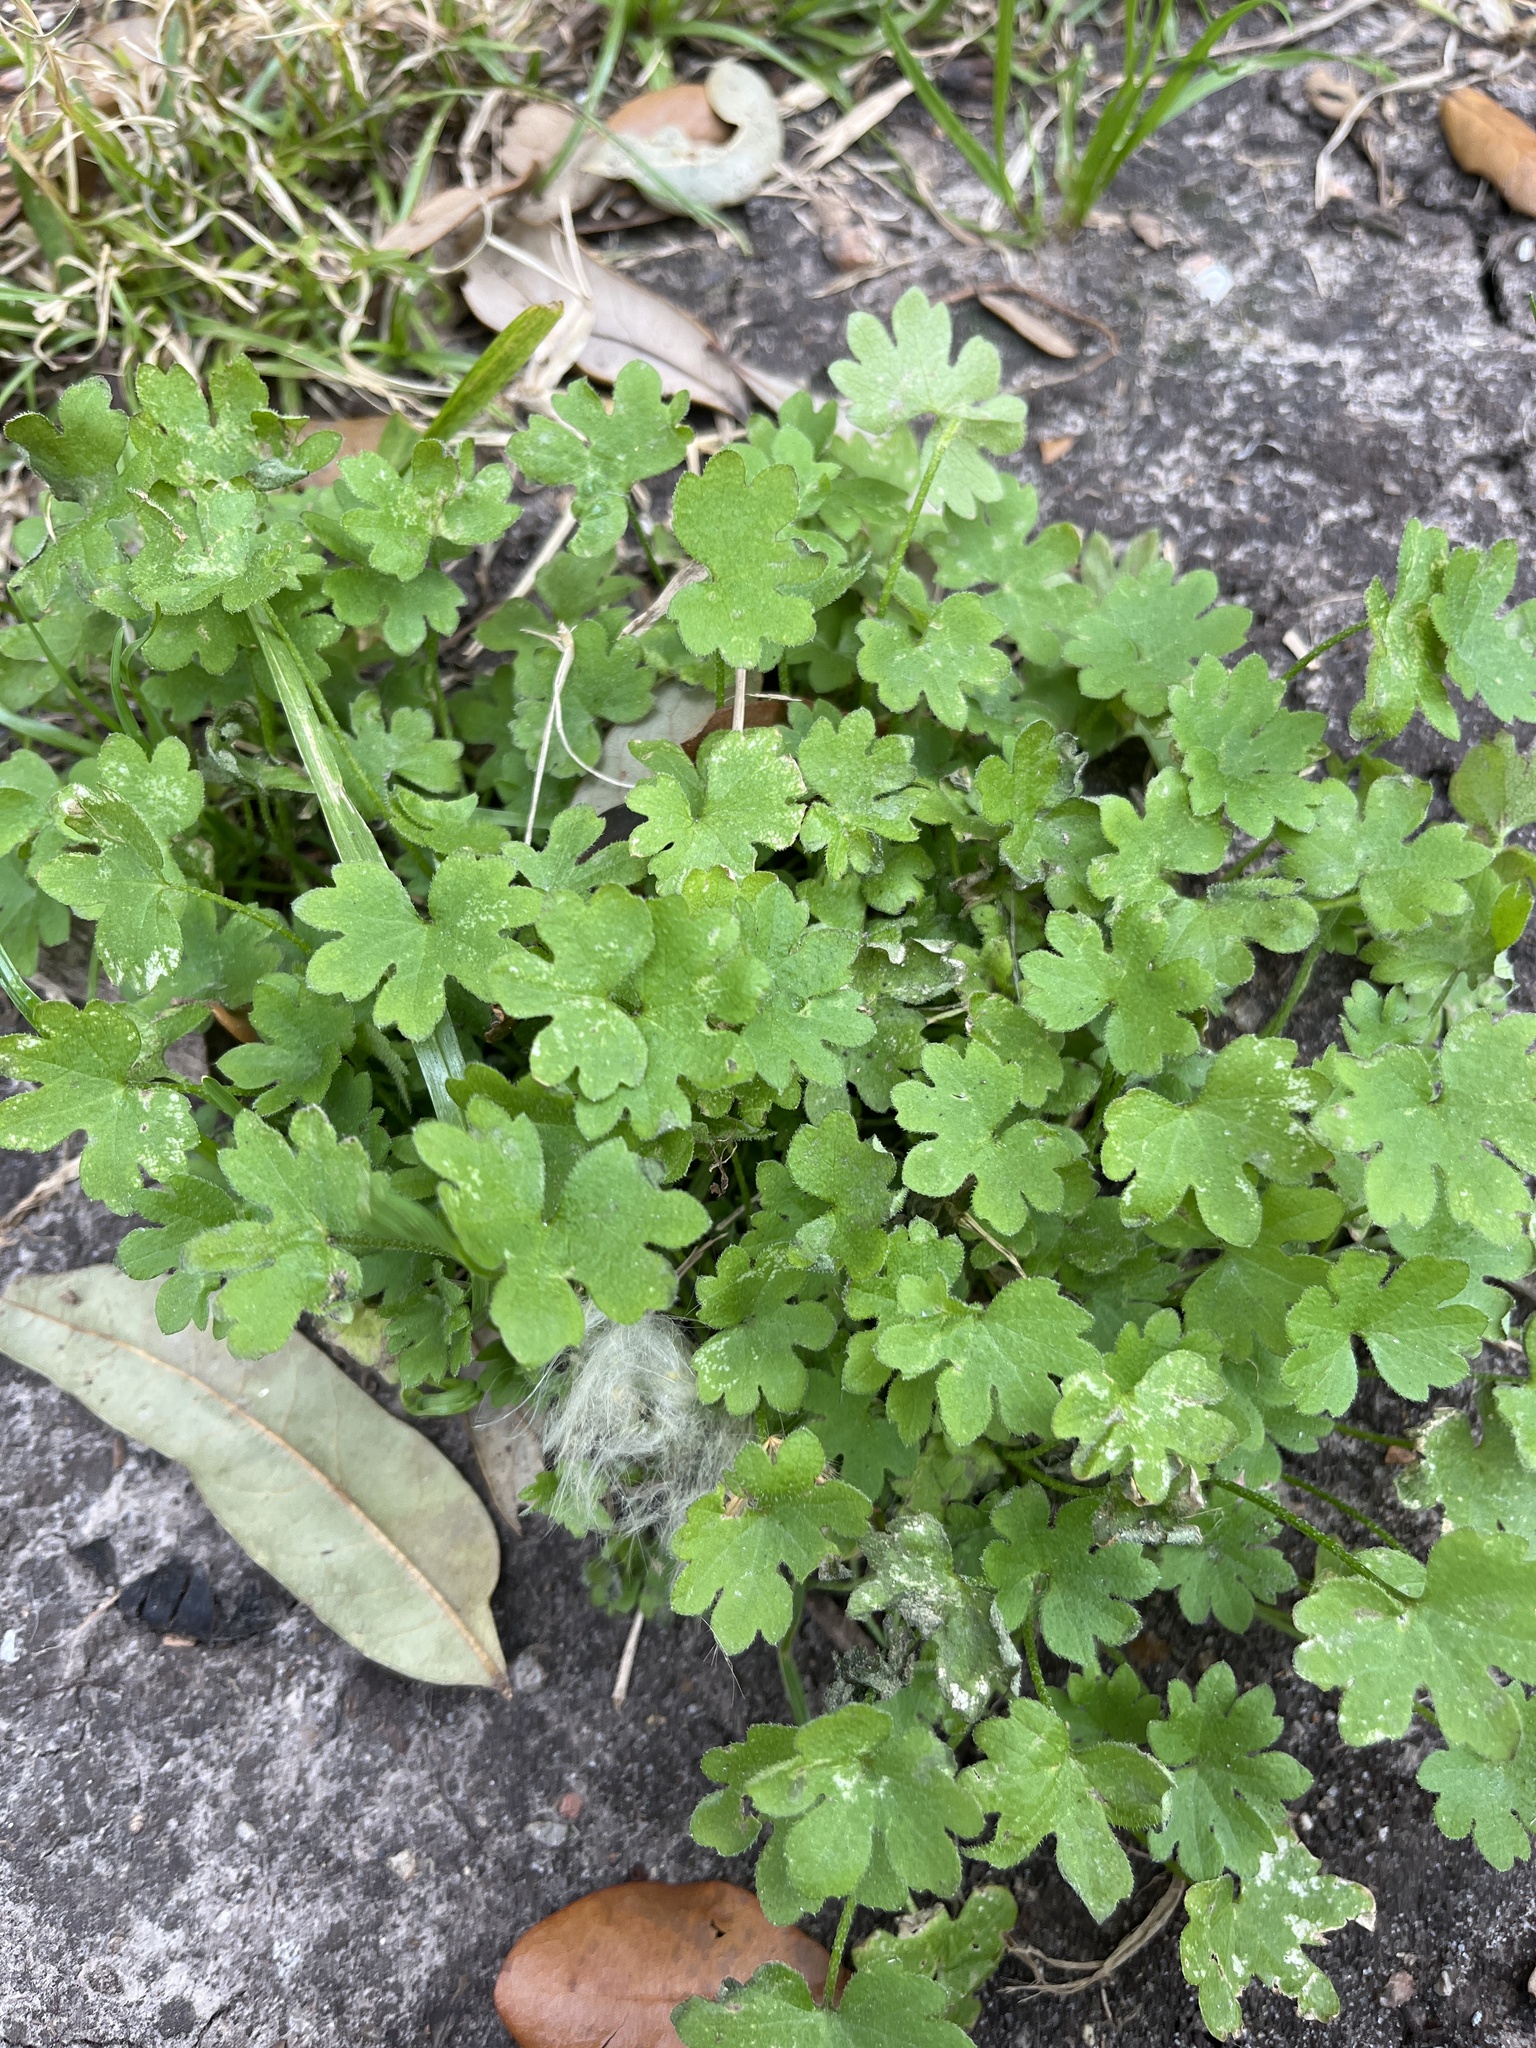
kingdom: Plantae
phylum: Tracheophyta
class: Magnoliopsida
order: Apiales
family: Apiaceae
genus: Bowlesia
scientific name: Bowlesia incana
